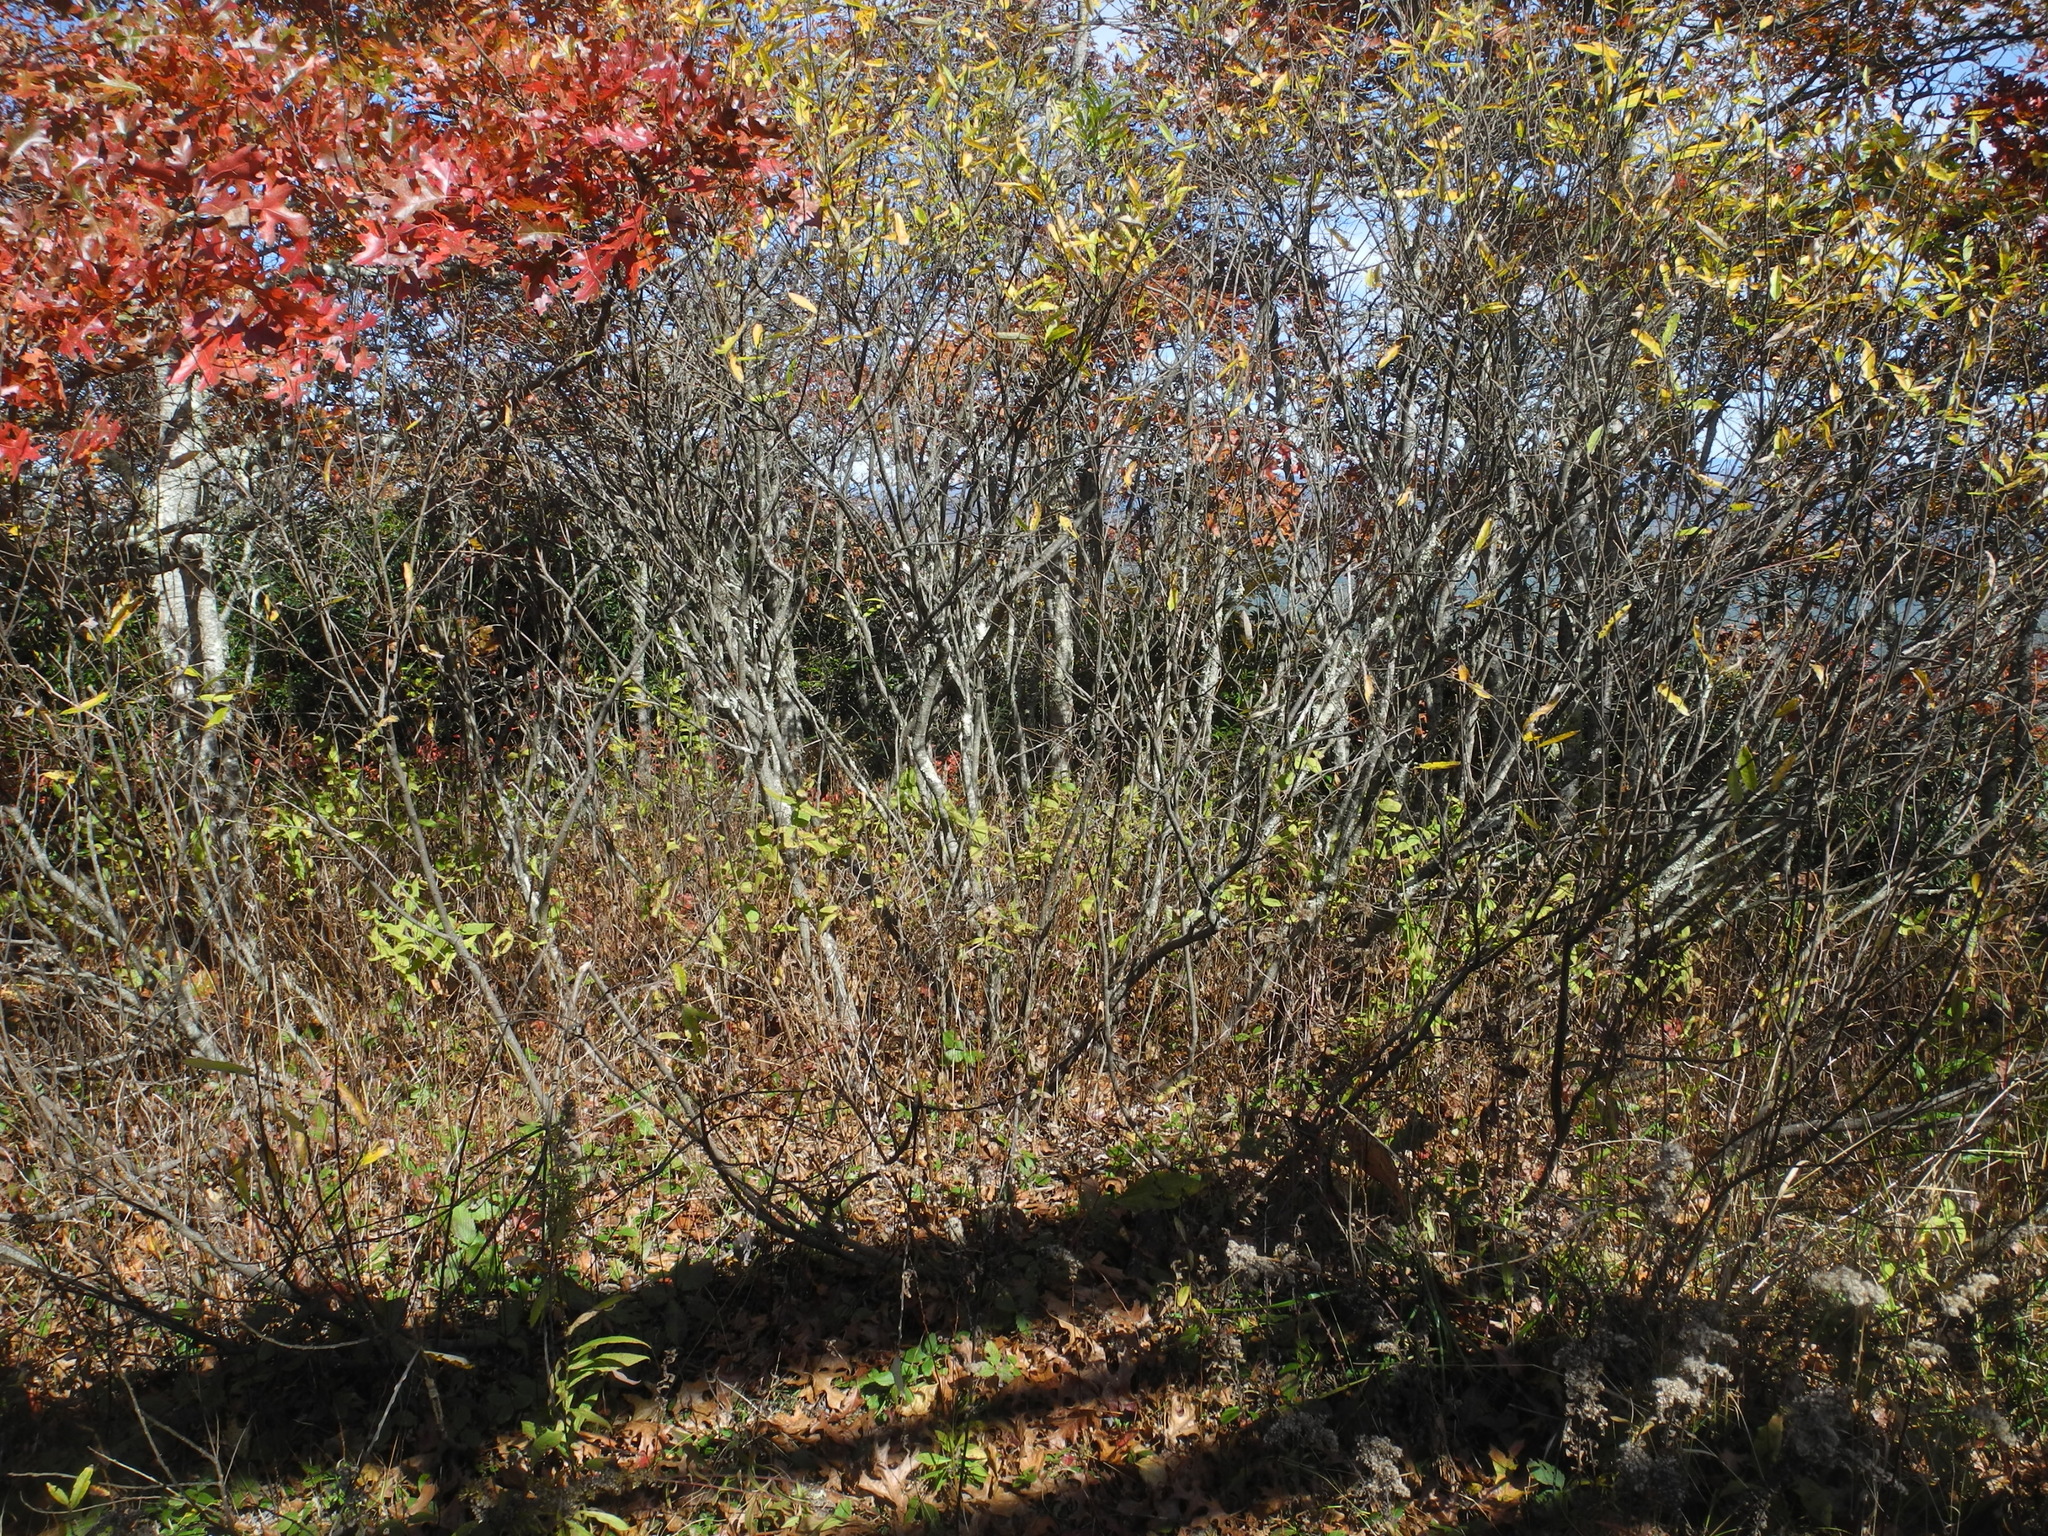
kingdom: Plantae
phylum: Tracheophyta
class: Magnoliopsida
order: Malpighiales
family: Salicaceae
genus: Salix
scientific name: Salix humilis
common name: Prairie willow
